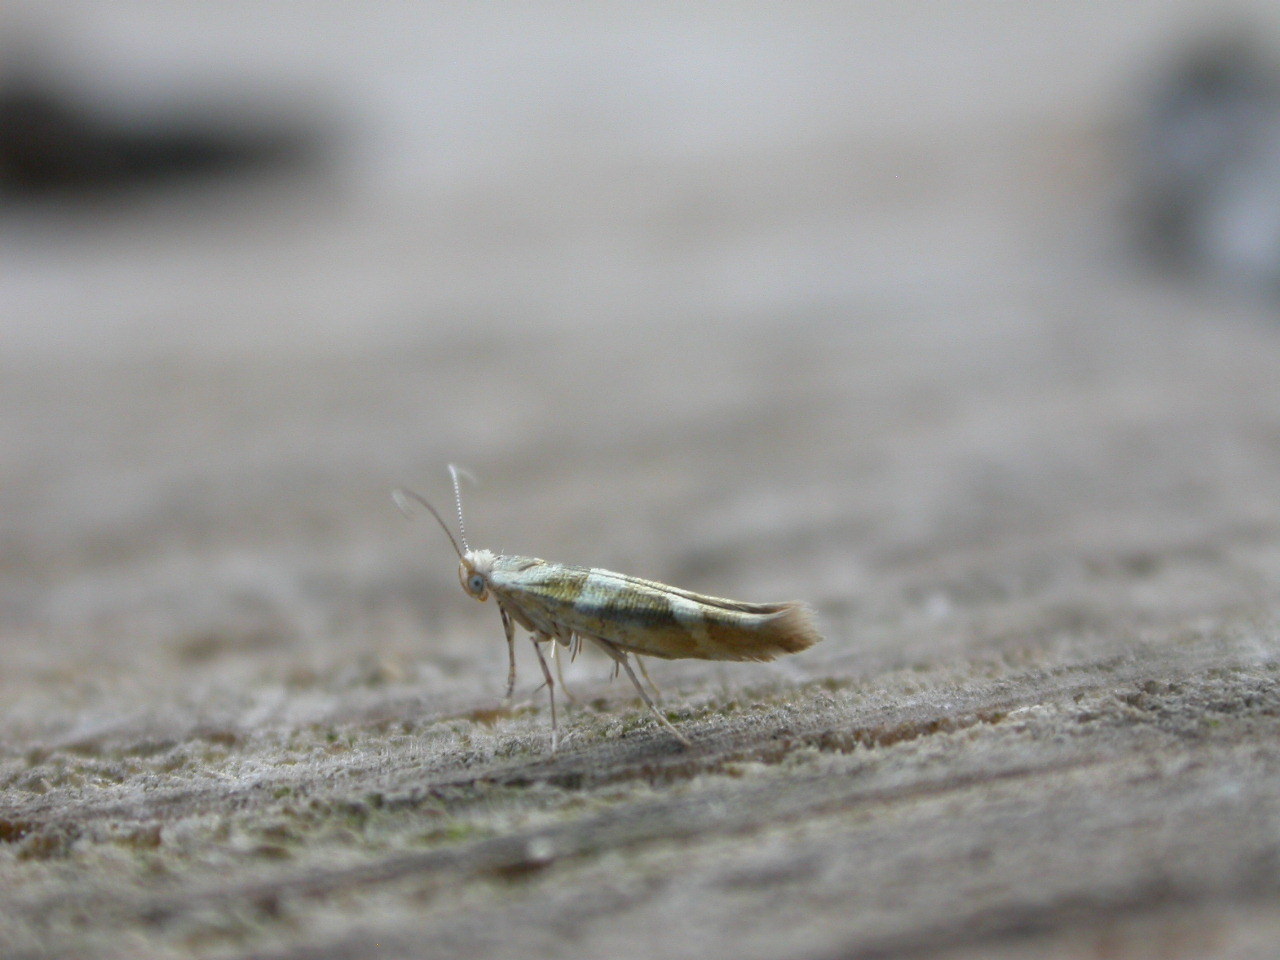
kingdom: Animalia
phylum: Arthropoda
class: Insecta
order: Lepidoptera
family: Argyresthiidae
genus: Argyresthia
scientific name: Argyresthia goedartella
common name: Golden argent
